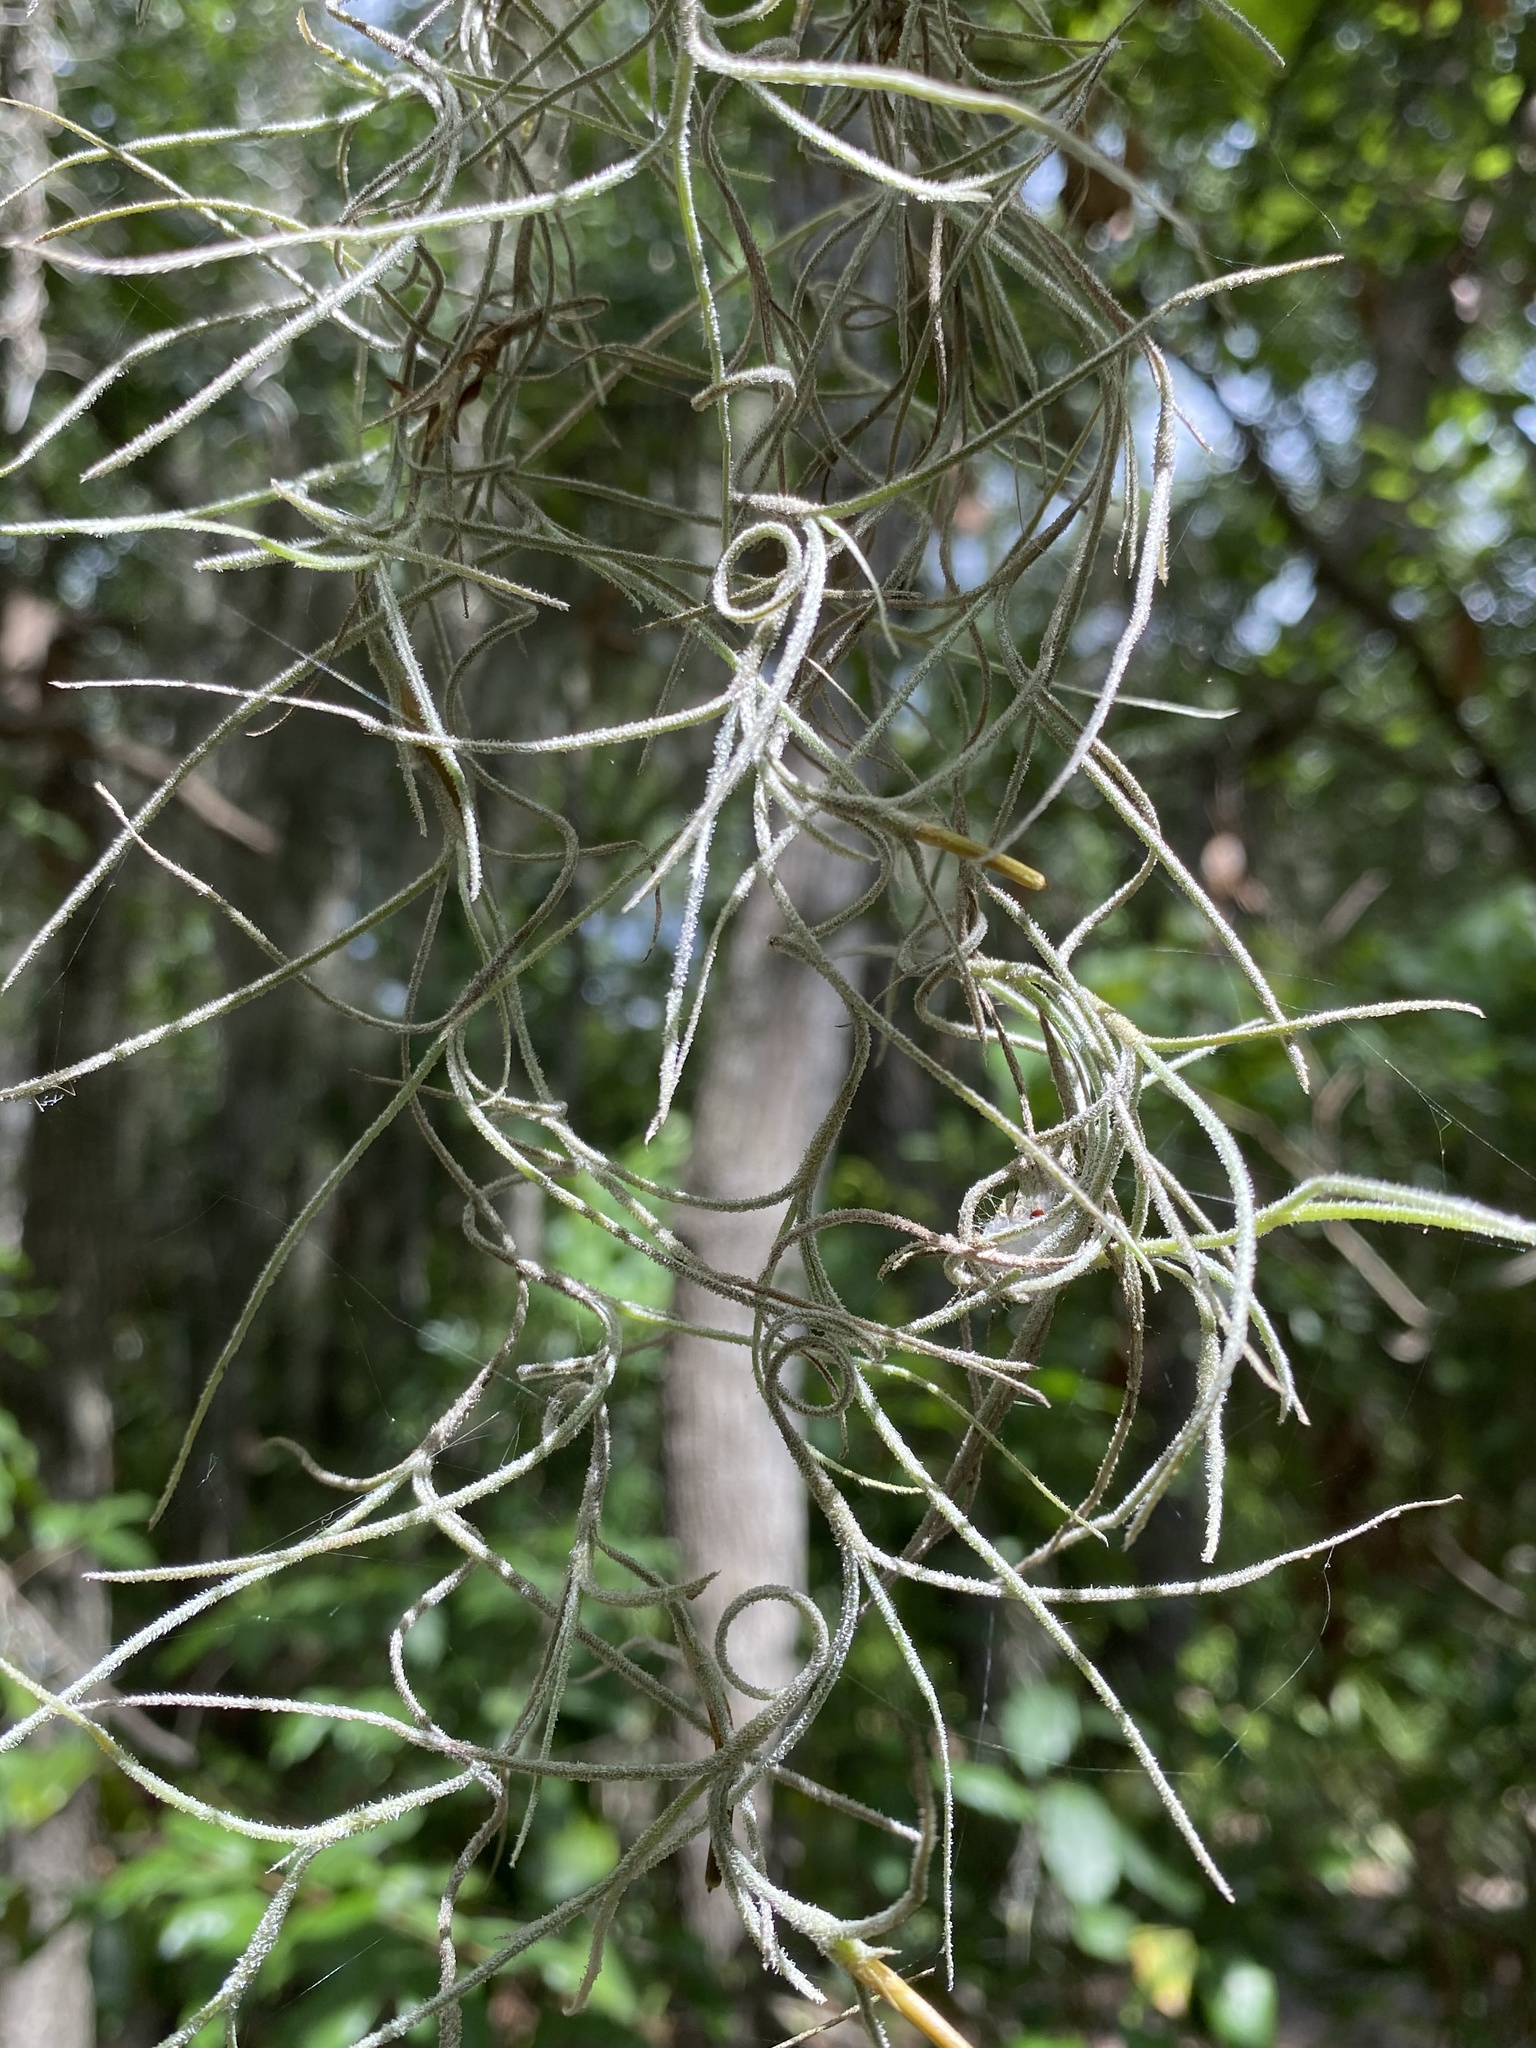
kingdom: Plantae
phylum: Tracheophyta
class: Liliopsida
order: Poales
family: Bromeliaceae
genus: Tillandsia
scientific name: Tillandsia usneoides
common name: Spanish moss
